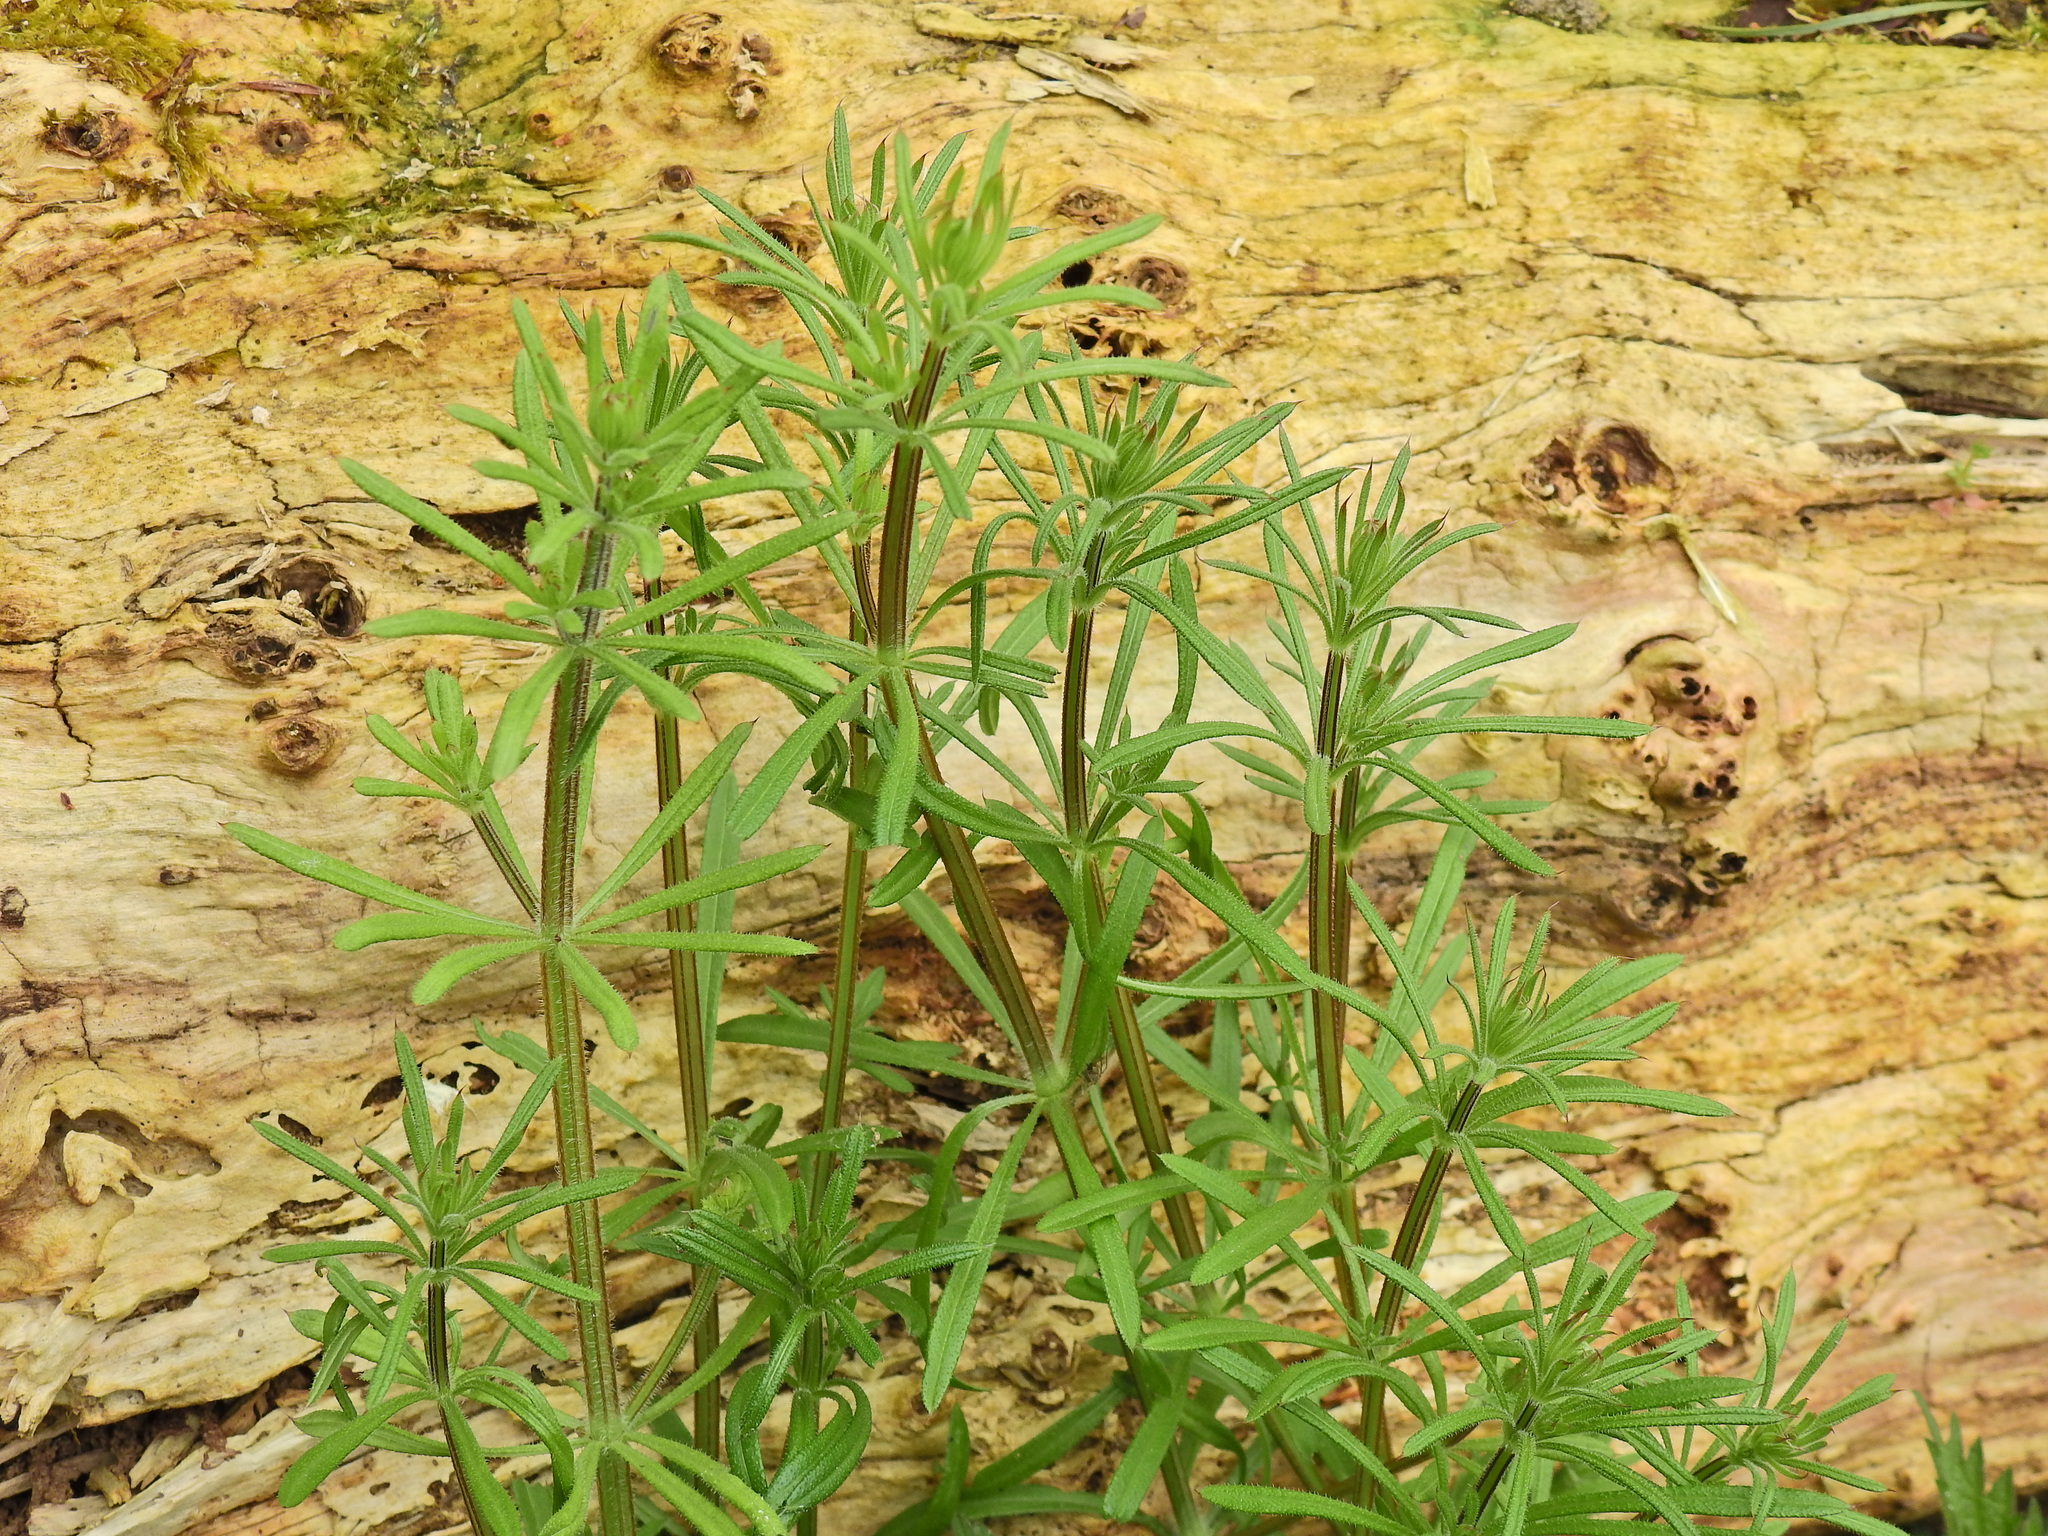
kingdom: Plantae
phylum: Tracheophyta
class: Magnoliopsida
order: Gentianales
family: Rubiaceae
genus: Galium
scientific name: Galium aparine
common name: Cleavers
